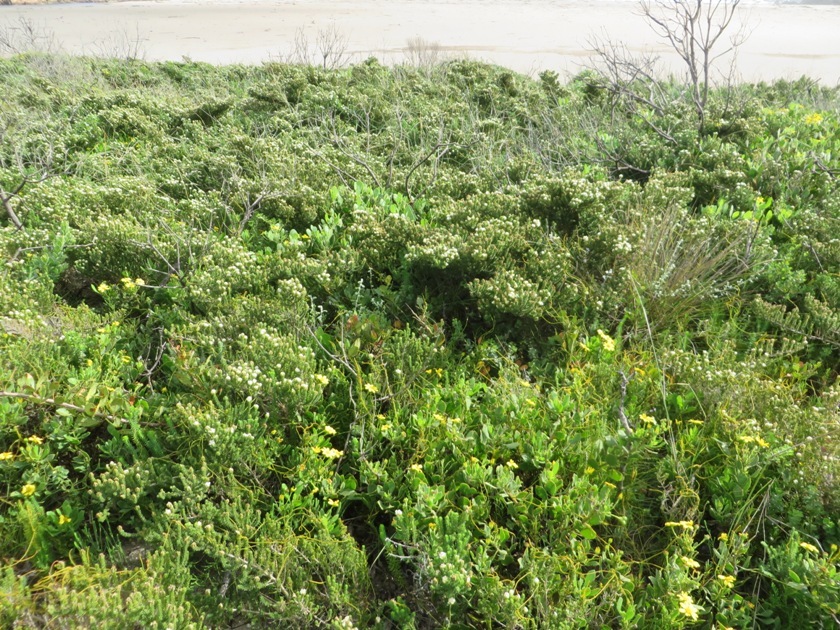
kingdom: Plantae
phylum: Tracheophyta
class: Magnoliopsida
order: Fabales
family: Fabaceae
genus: Aspalathus
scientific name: Aspalathus forbesii
